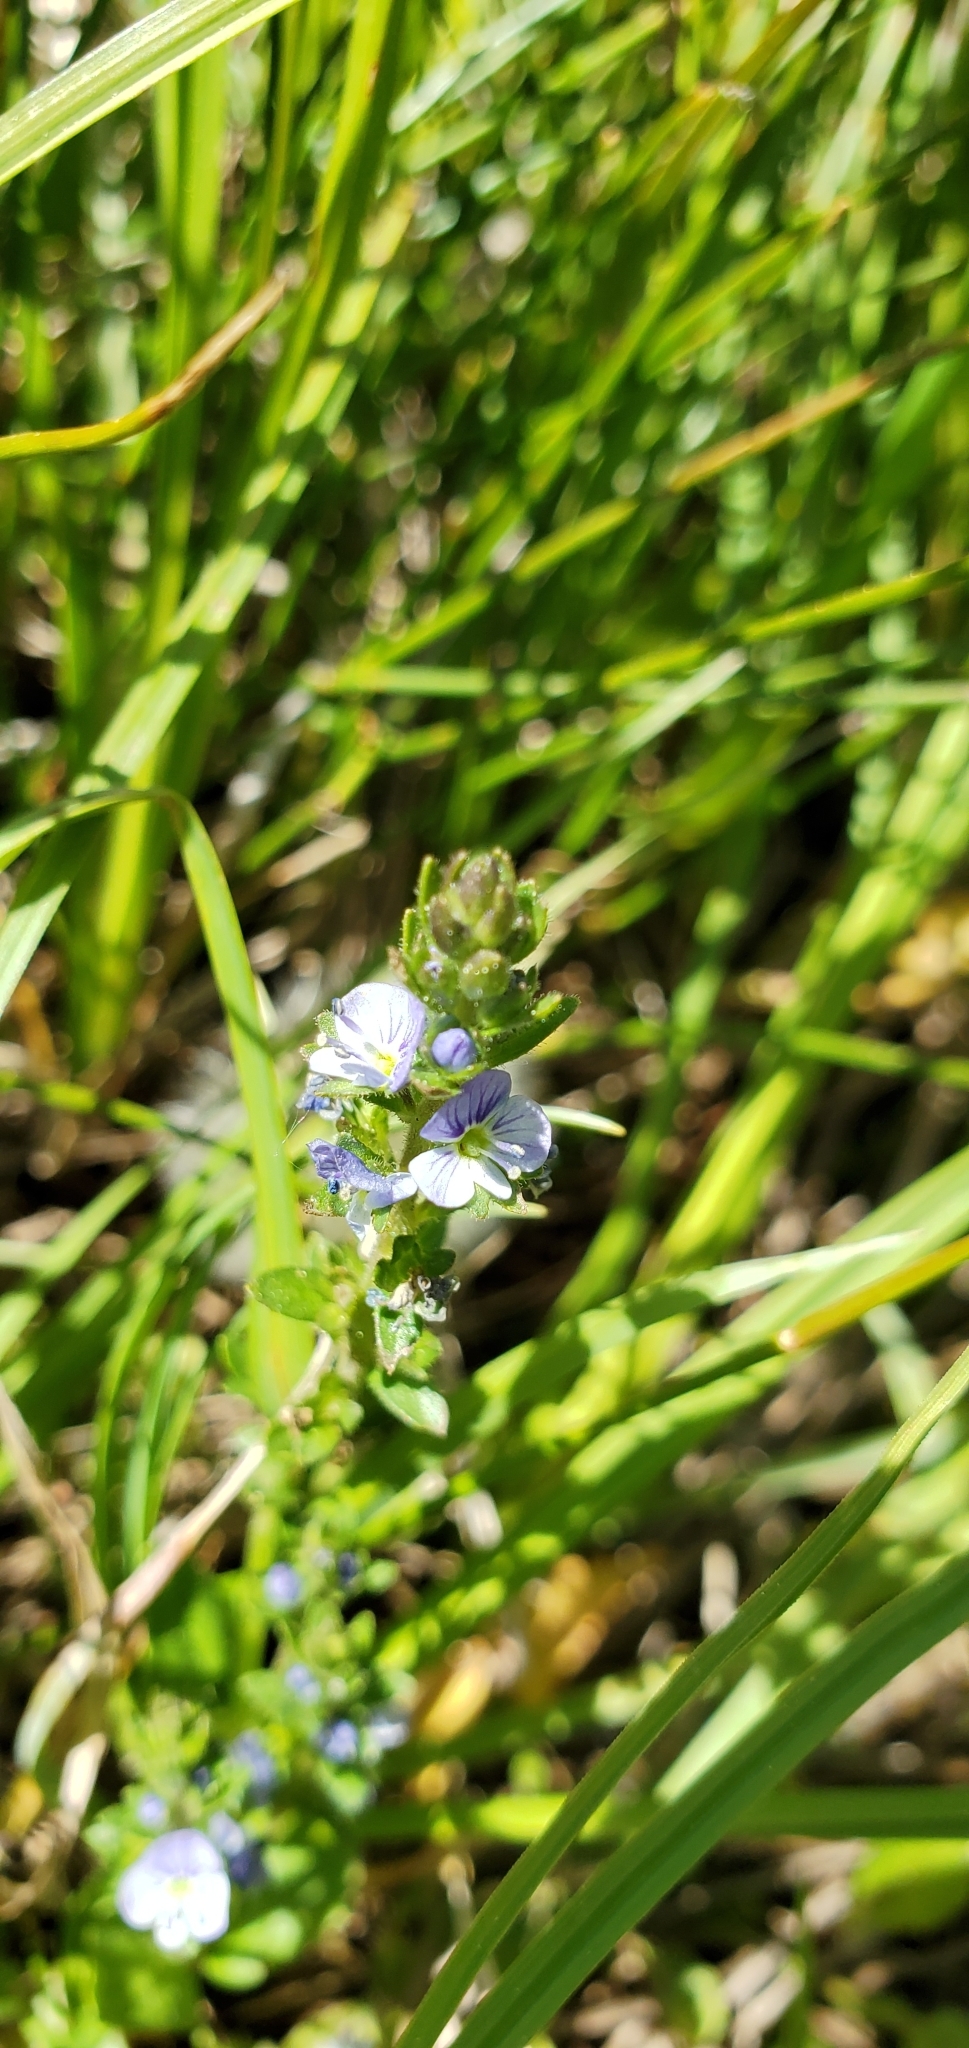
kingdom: Plantae
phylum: Tracheophyta
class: Magnoliopsida
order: Lamiales
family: Plantaginaceae
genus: Veronica
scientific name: Veronica serpyllifolia
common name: Thyme-leaved speedwell
